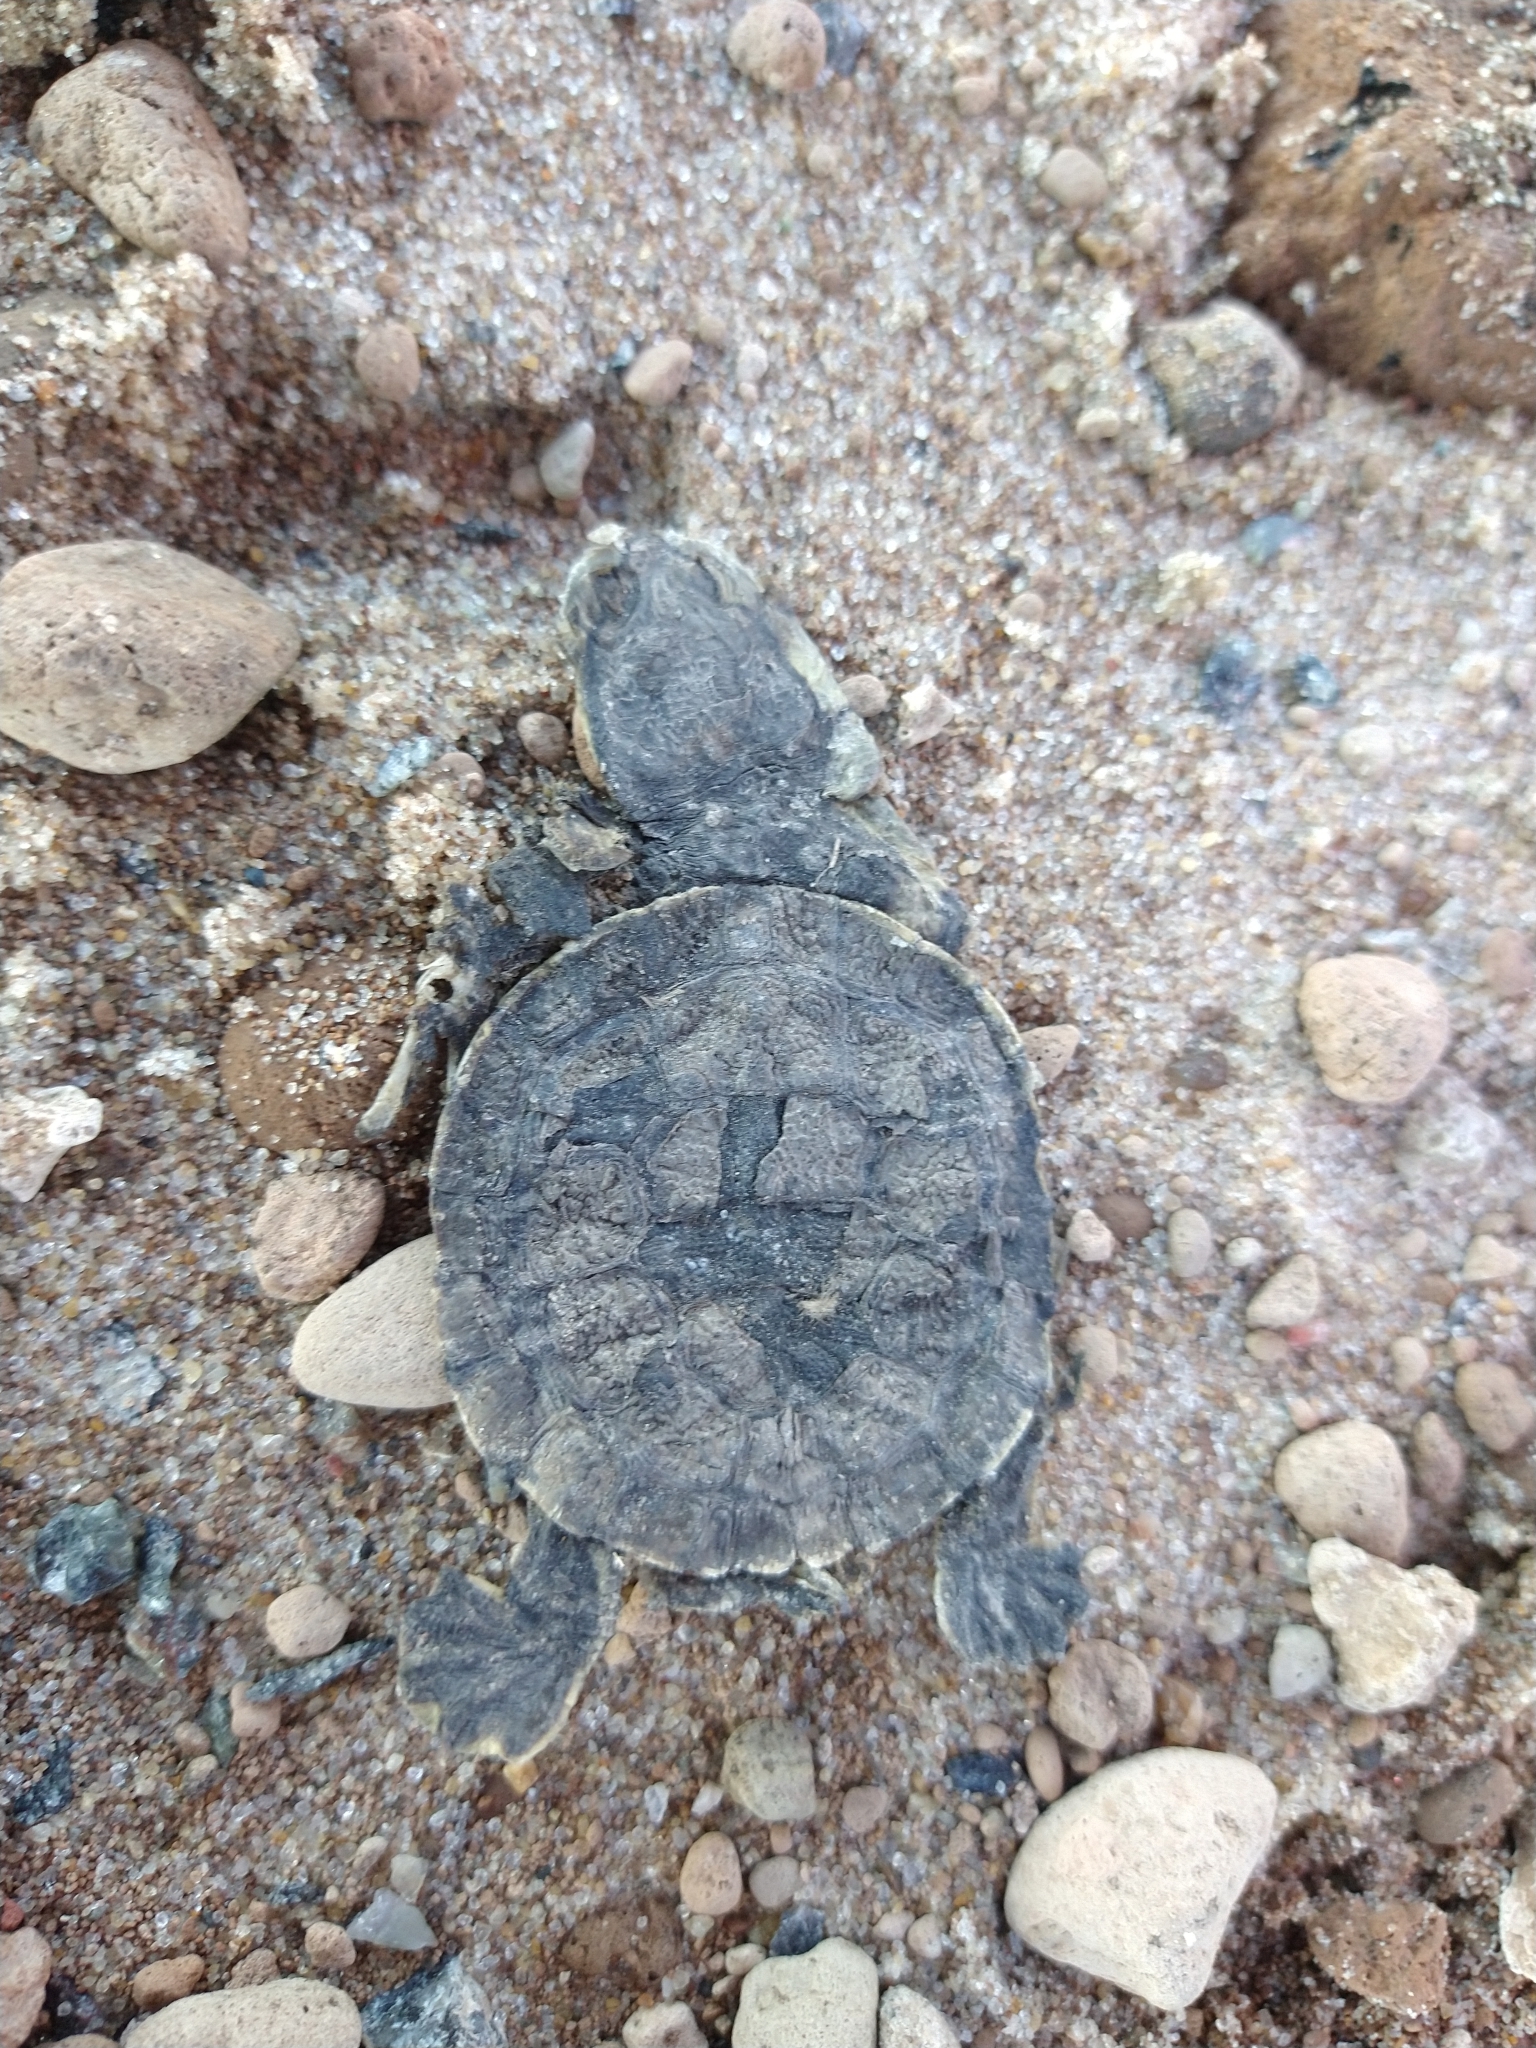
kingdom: Animalia
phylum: Chordata
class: Testudines
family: Chelidae
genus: Phrynops
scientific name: Phrynops hilarii
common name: Side-necked turtle of saint hillaire
